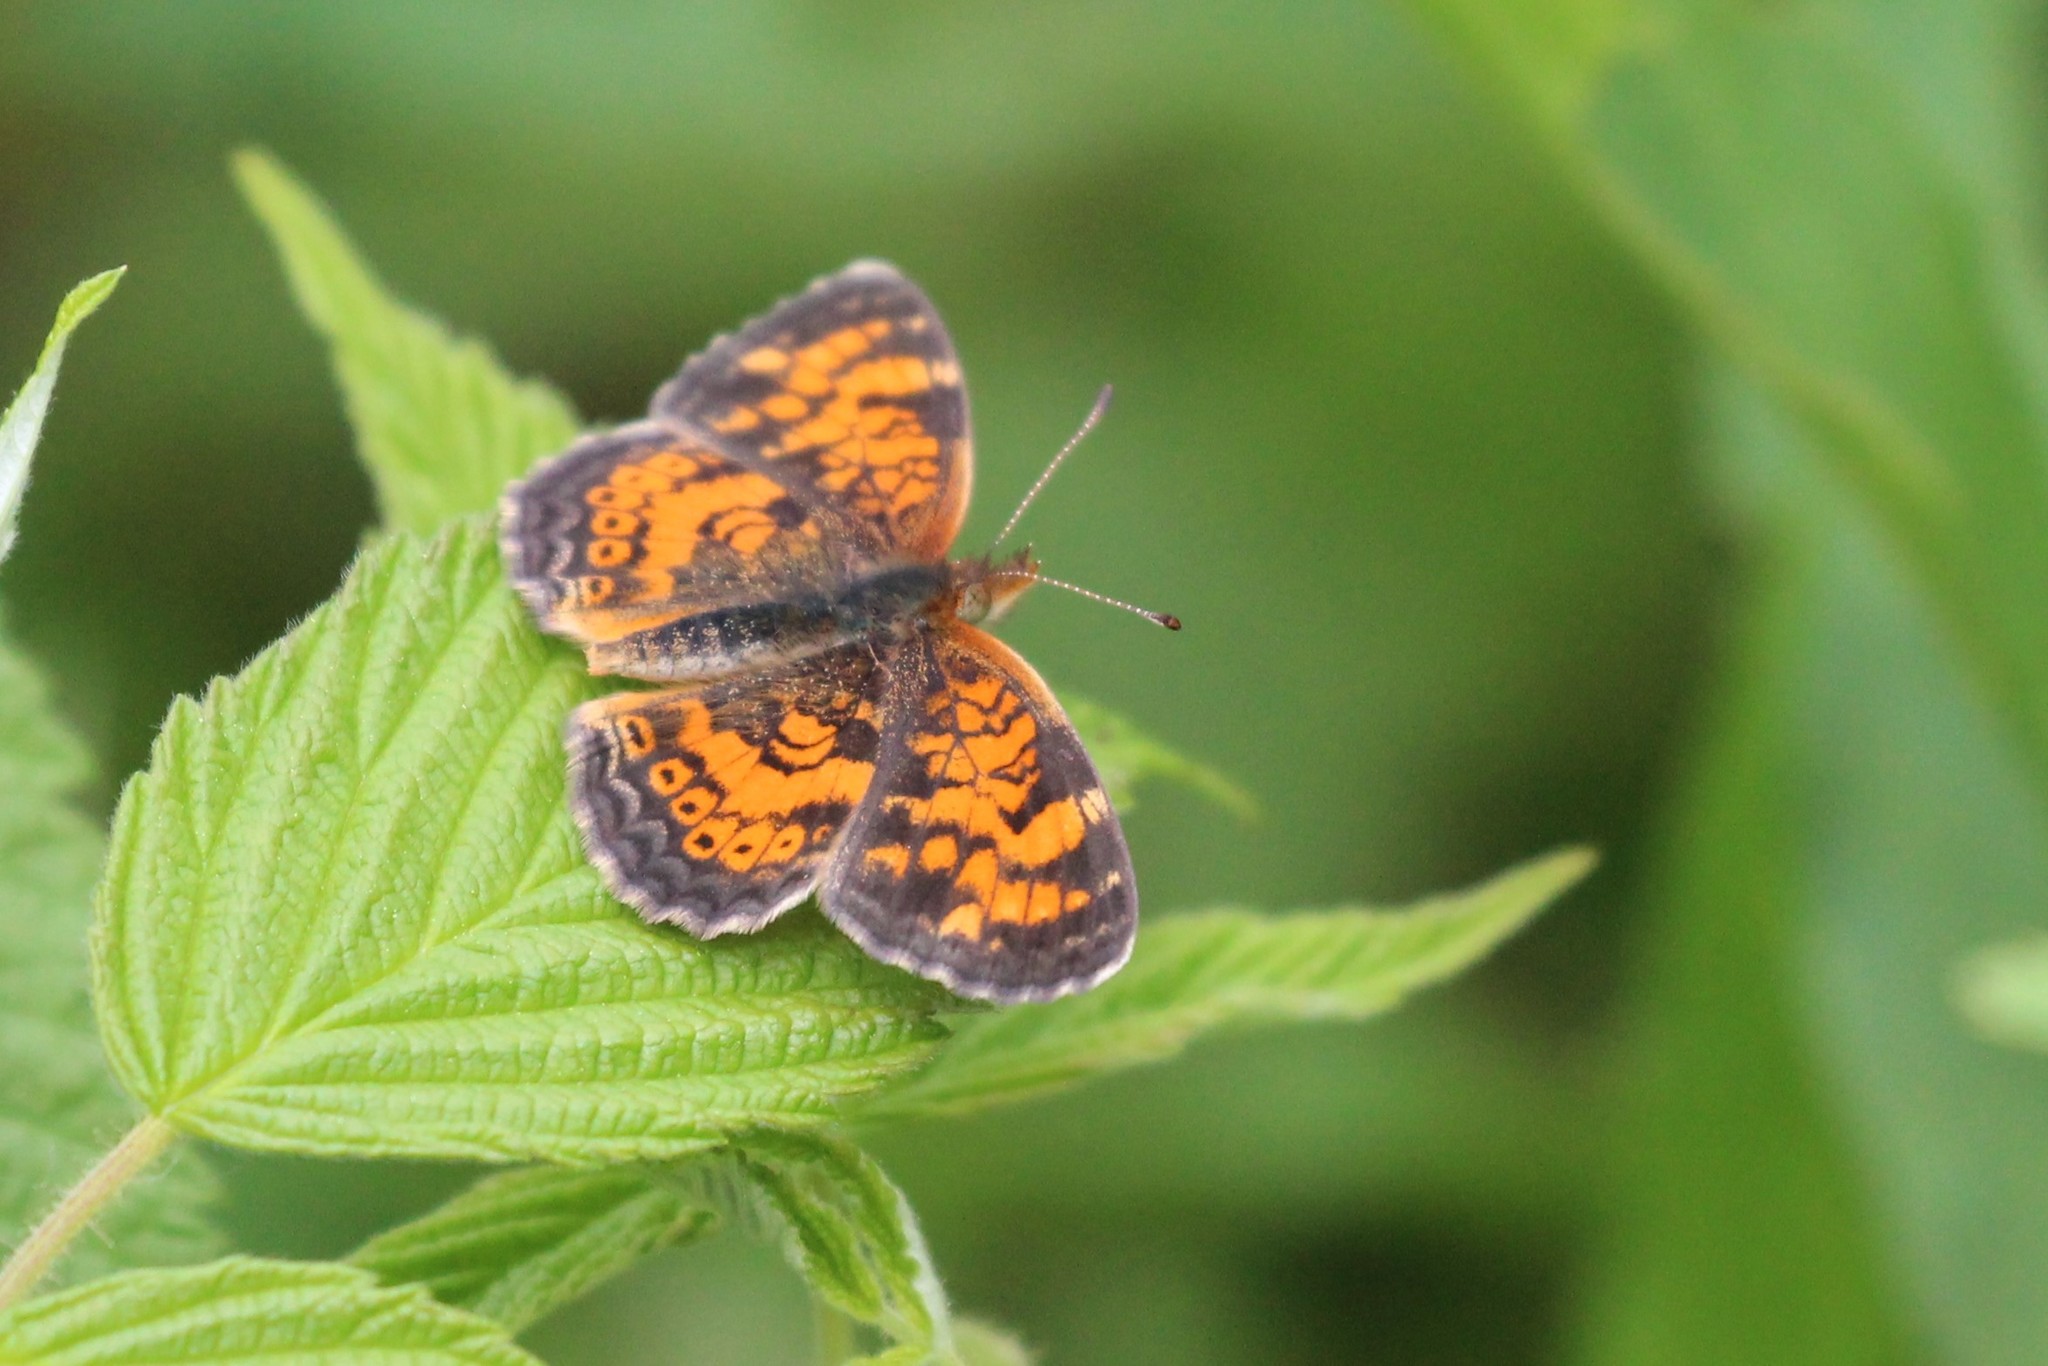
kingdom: Animalia
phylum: Arthropoda
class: Insecta
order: Lepidoptera
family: Nymphalidae
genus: Phyciodes
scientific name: Phyciodes tharos
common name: Pearl crescent
